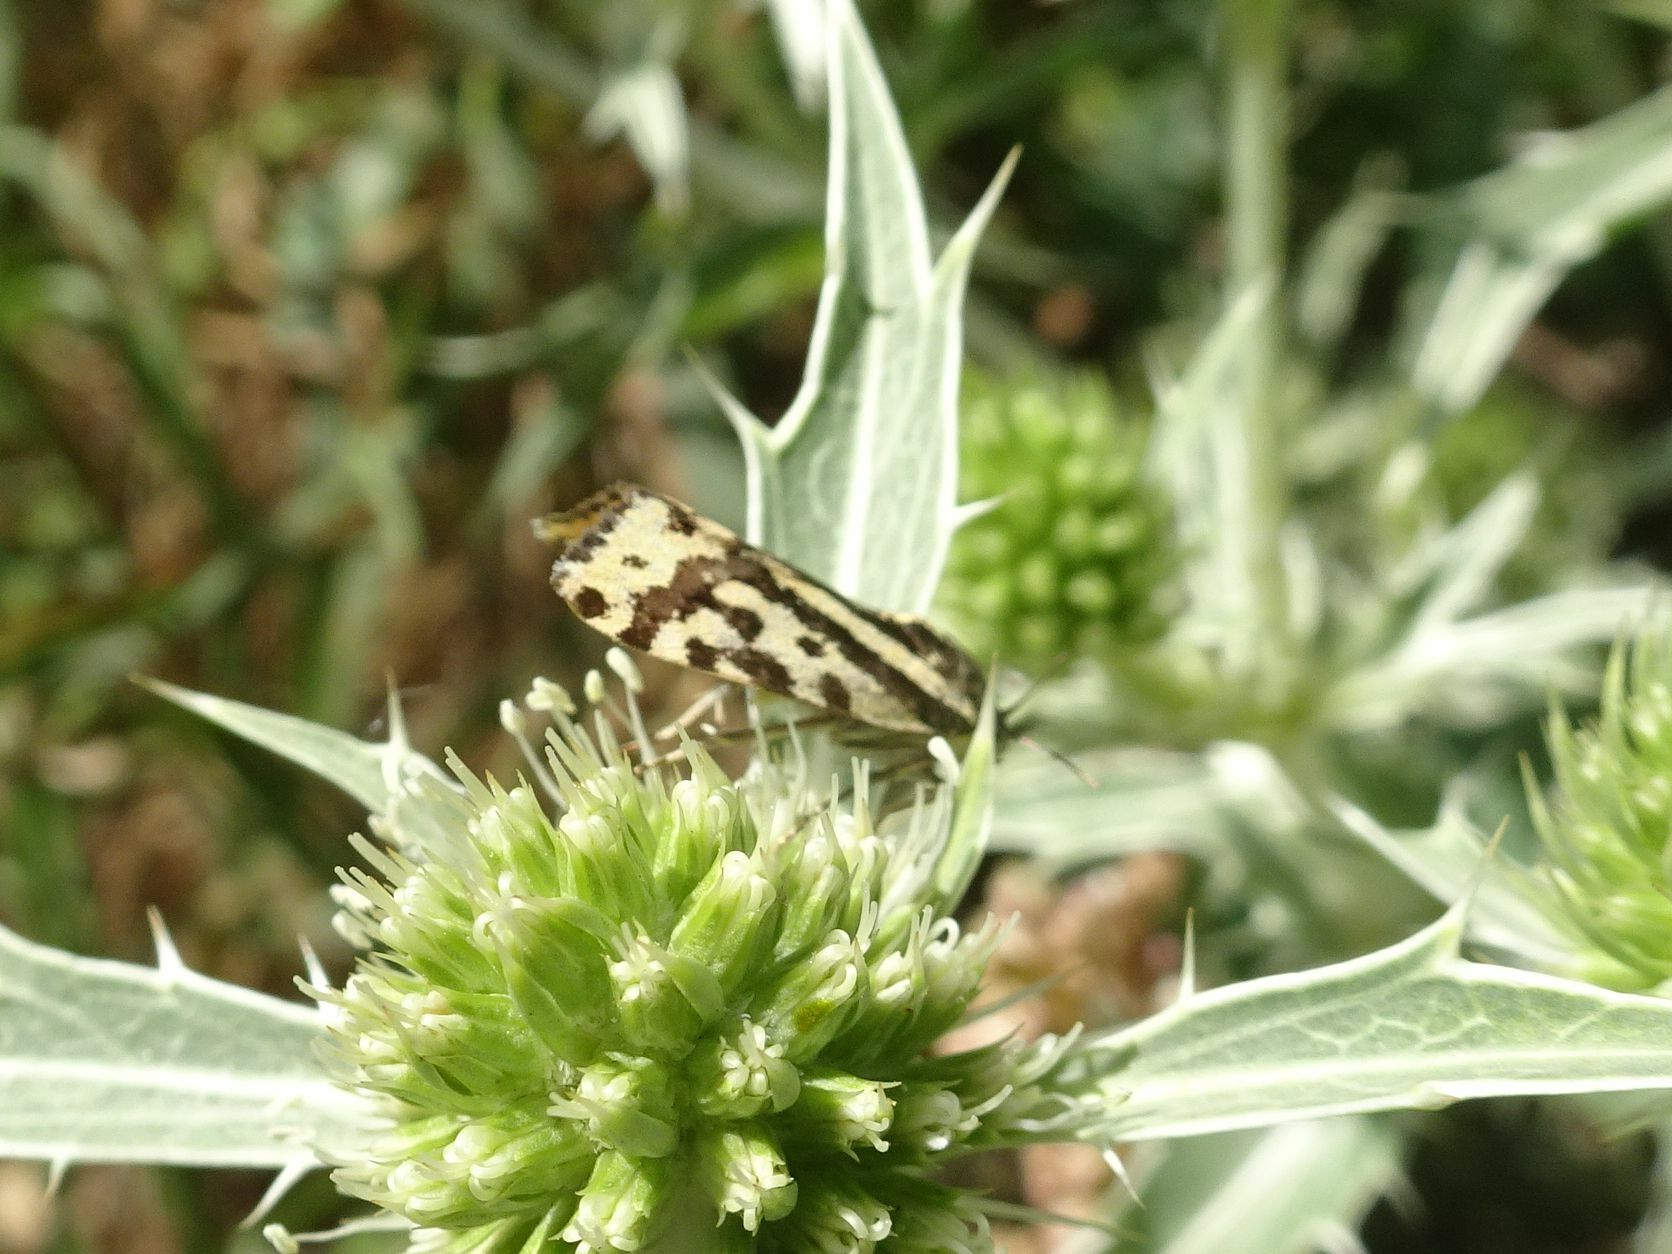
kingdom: Animalia
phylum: Arthropoda
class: Insecta
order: Lepidoptera
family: Noctuidae
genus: Acontia
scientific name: Acontia trabealis
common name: Spotted sulphur
